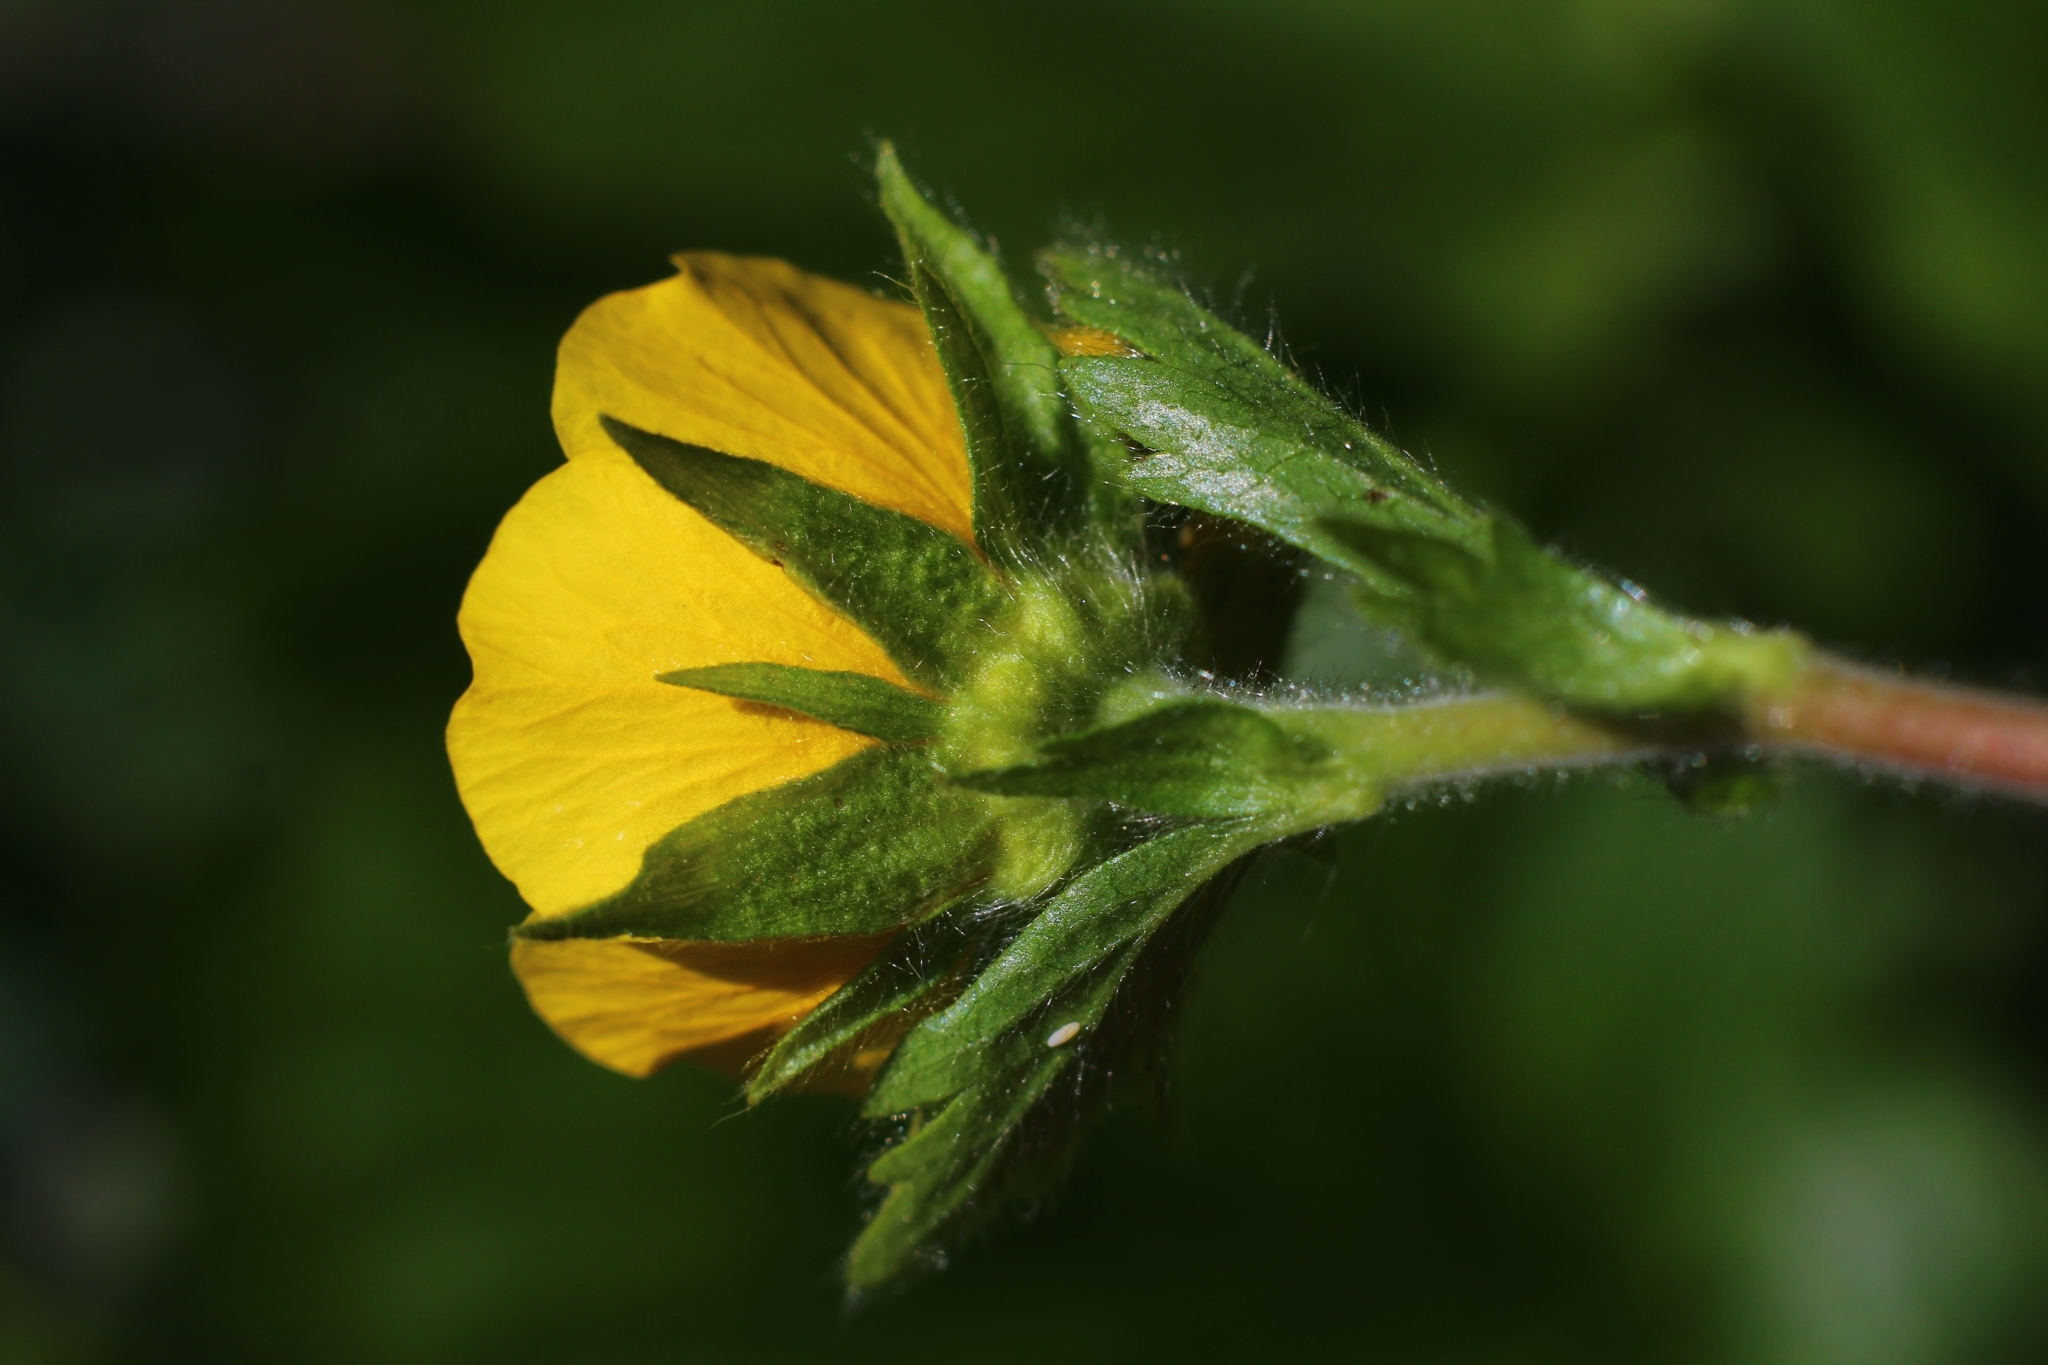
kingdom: Plantae
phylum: Tracheophyta
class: Magnoliopsida
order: Rosales
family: Rosaceae
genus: Geum
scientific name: Geum montanum
